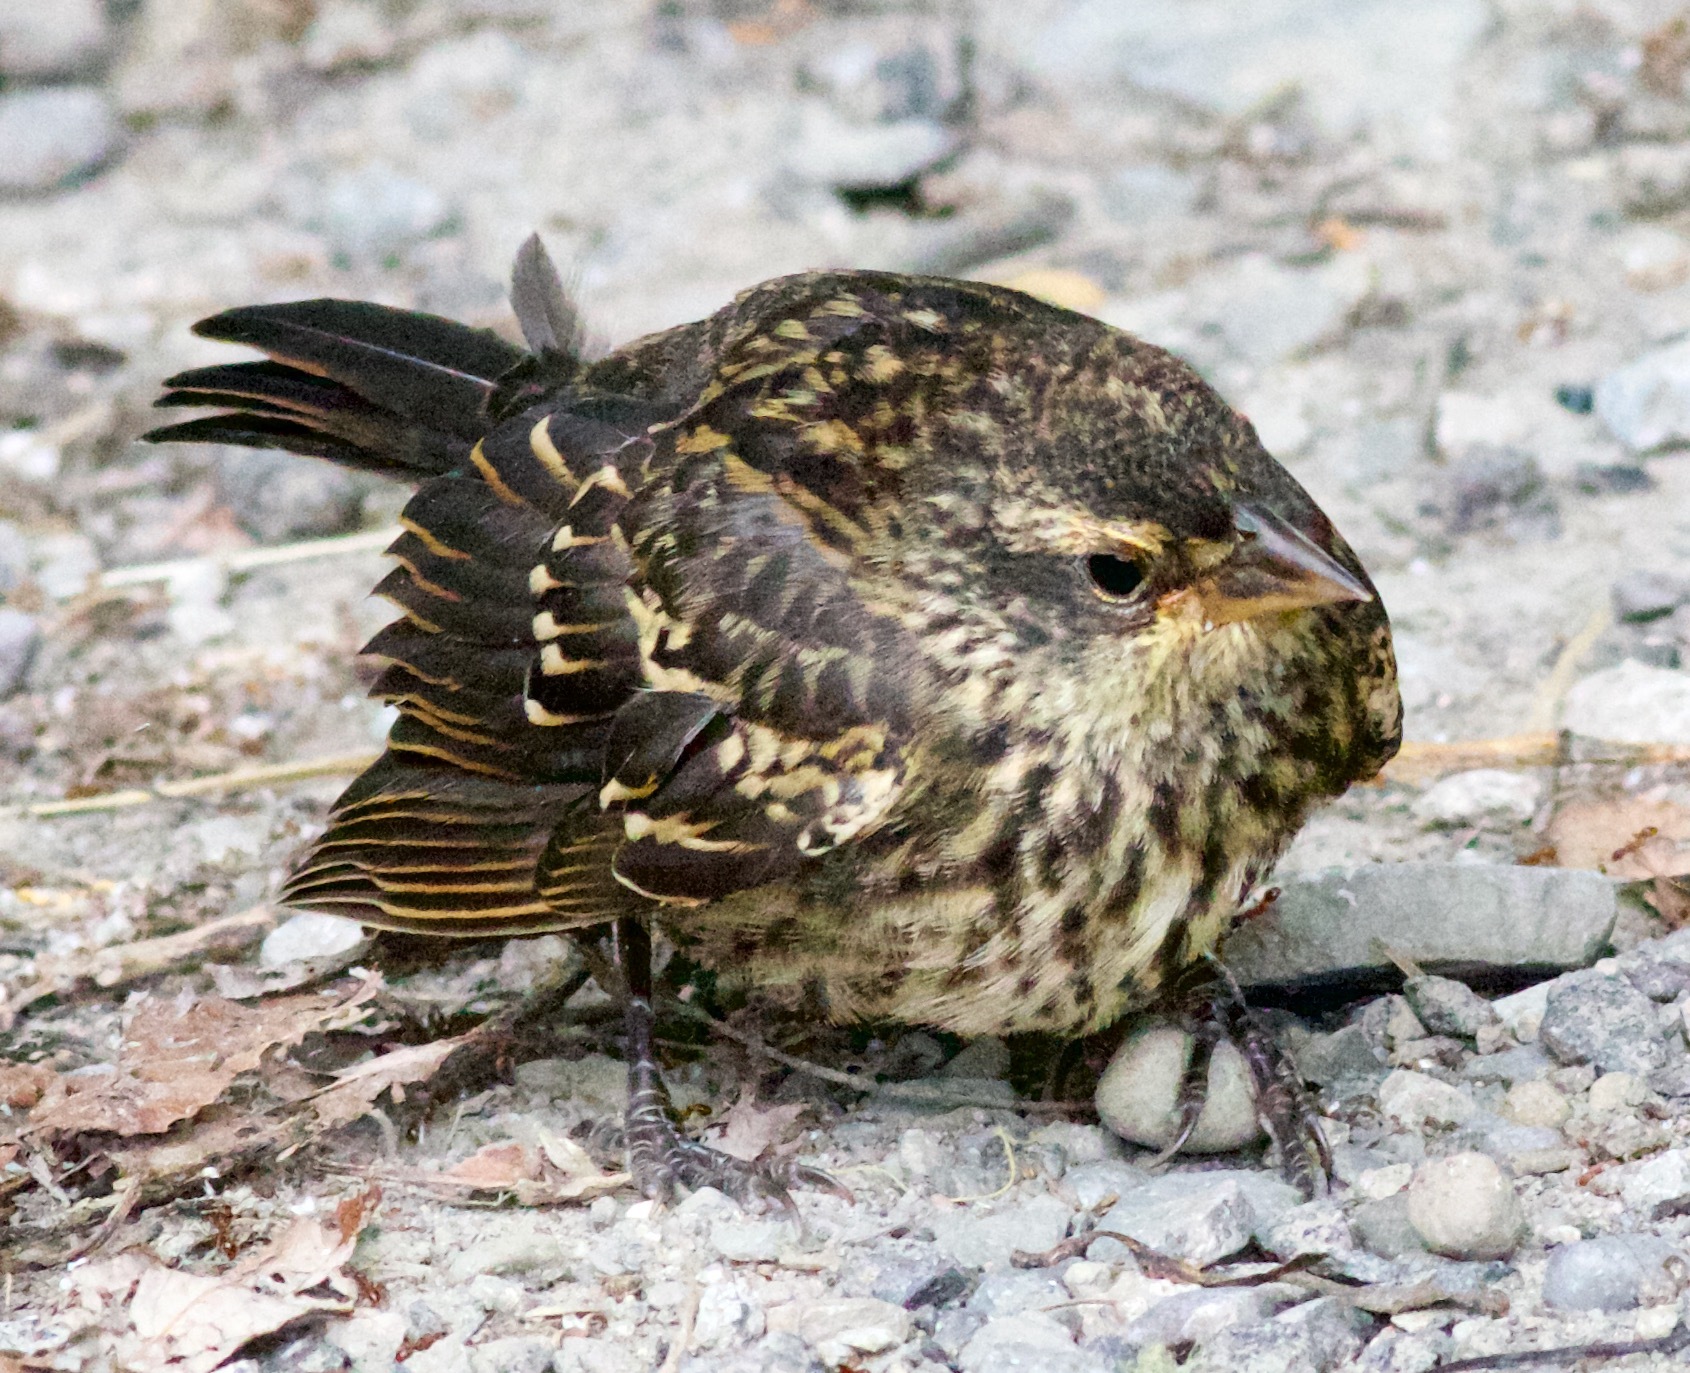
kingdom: Animalia
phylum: Chordata
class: Aves
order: Passeriformes
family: Icteridae
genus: Agelaius
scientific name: Agelaius phoeniceus
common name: Red-winged blackbird
